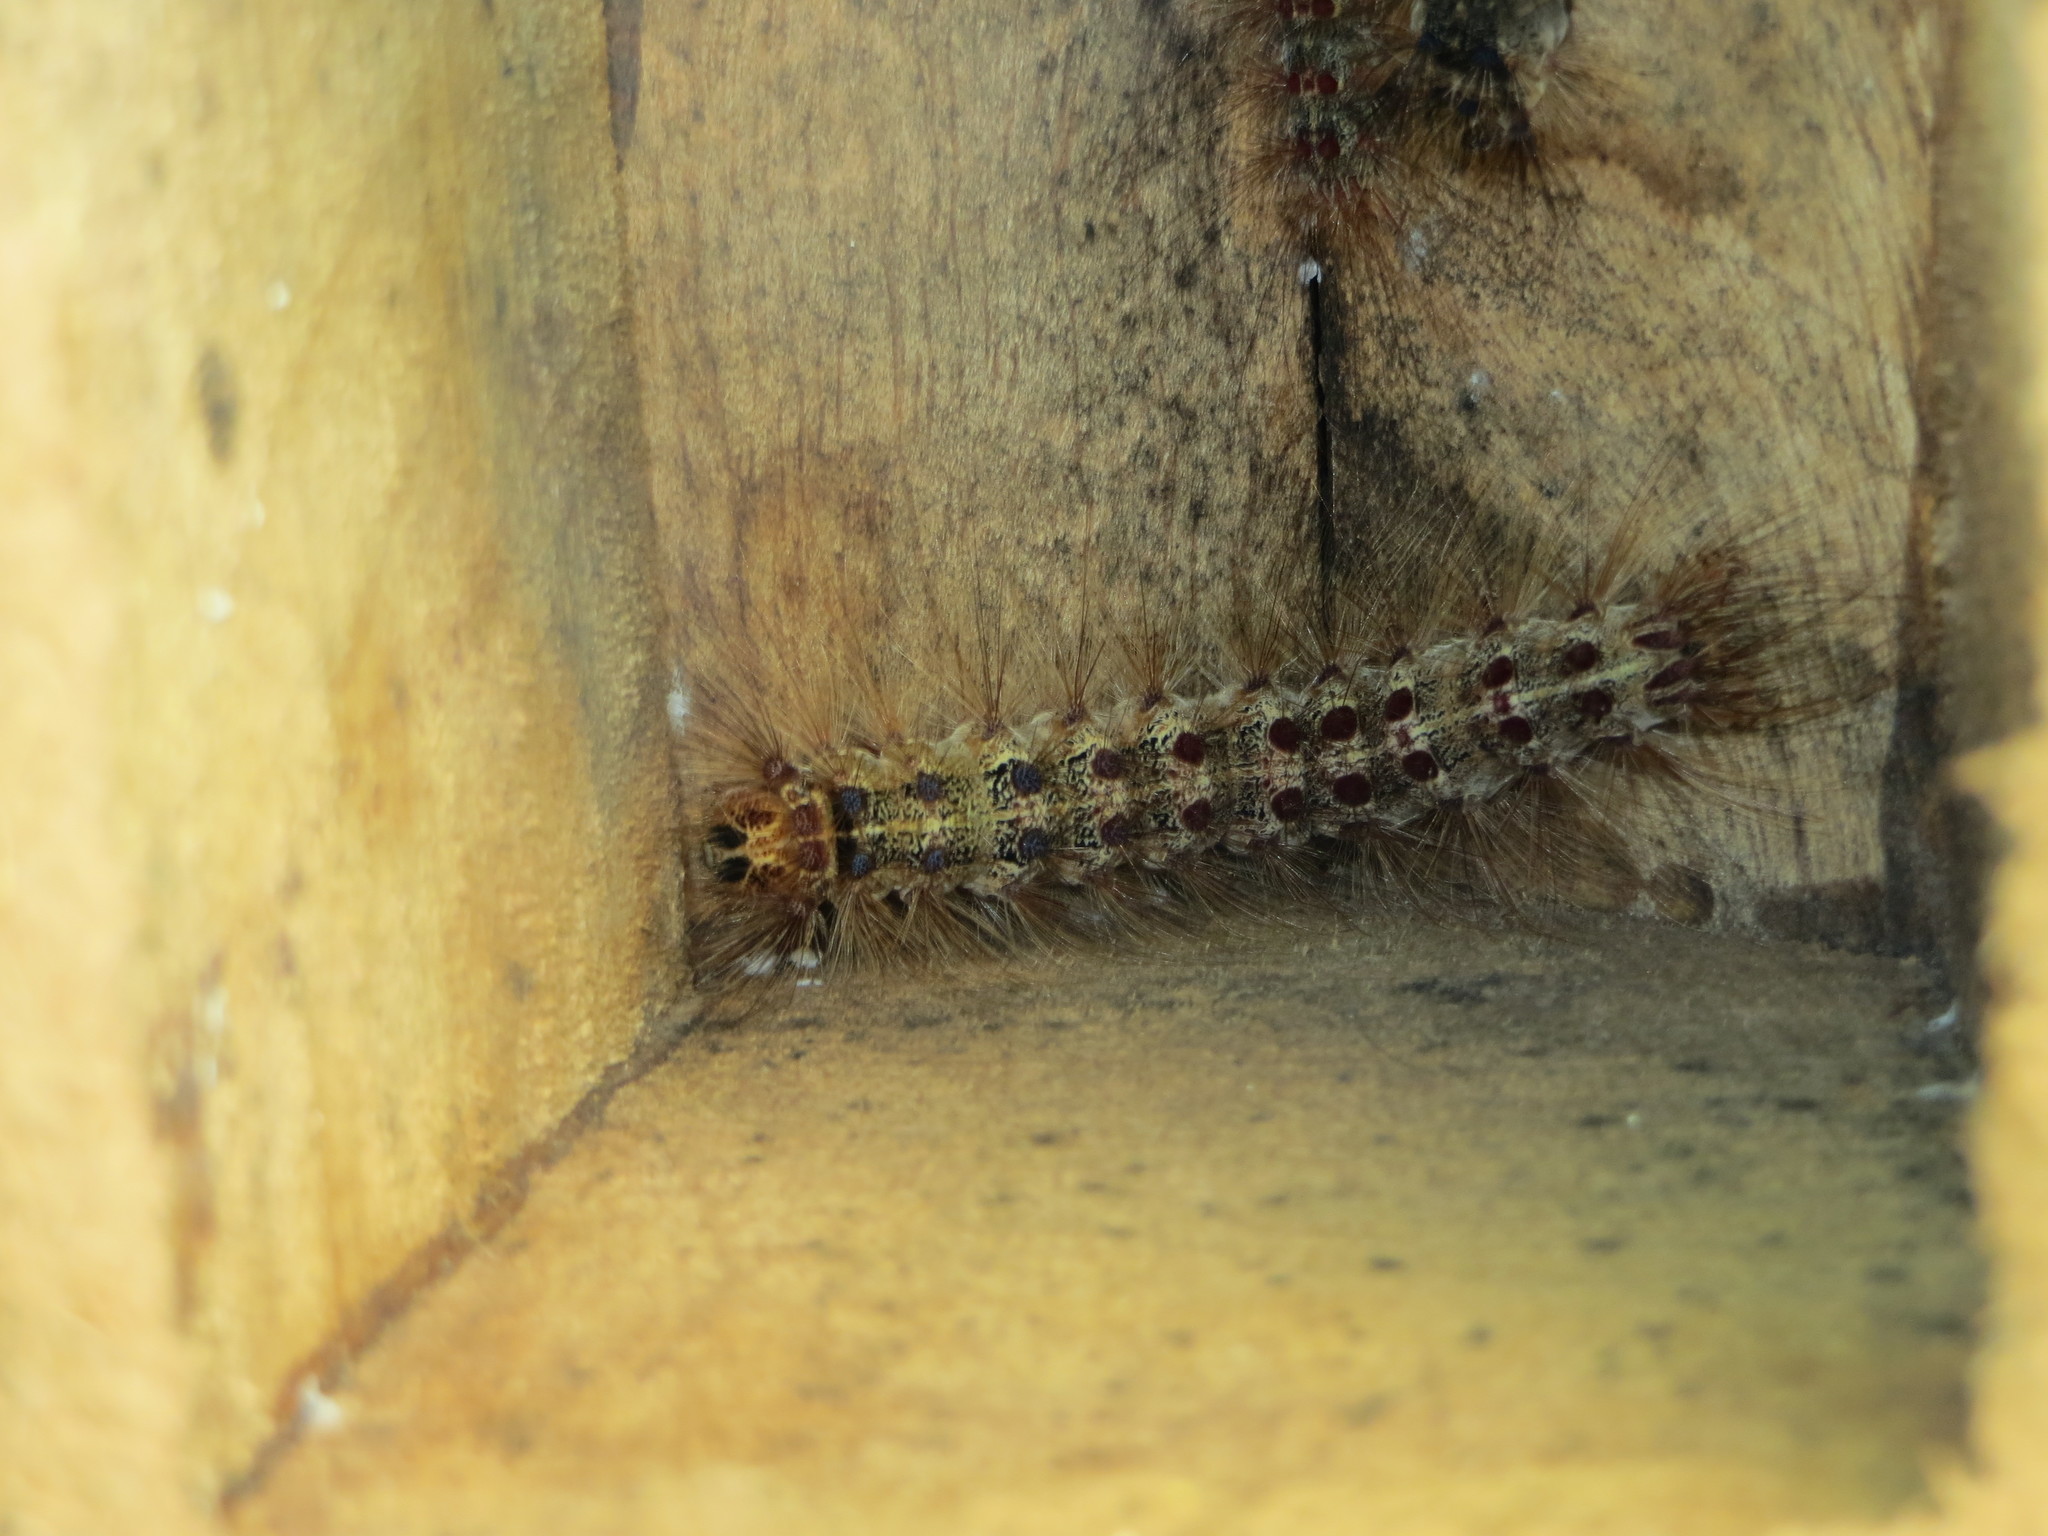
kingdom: Animalia
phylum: Arthropoda
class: Insecta
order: Lepidoptera
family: Erebidae
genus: Lymantria
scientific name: Lymantria dispar
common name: Gypsy moth
